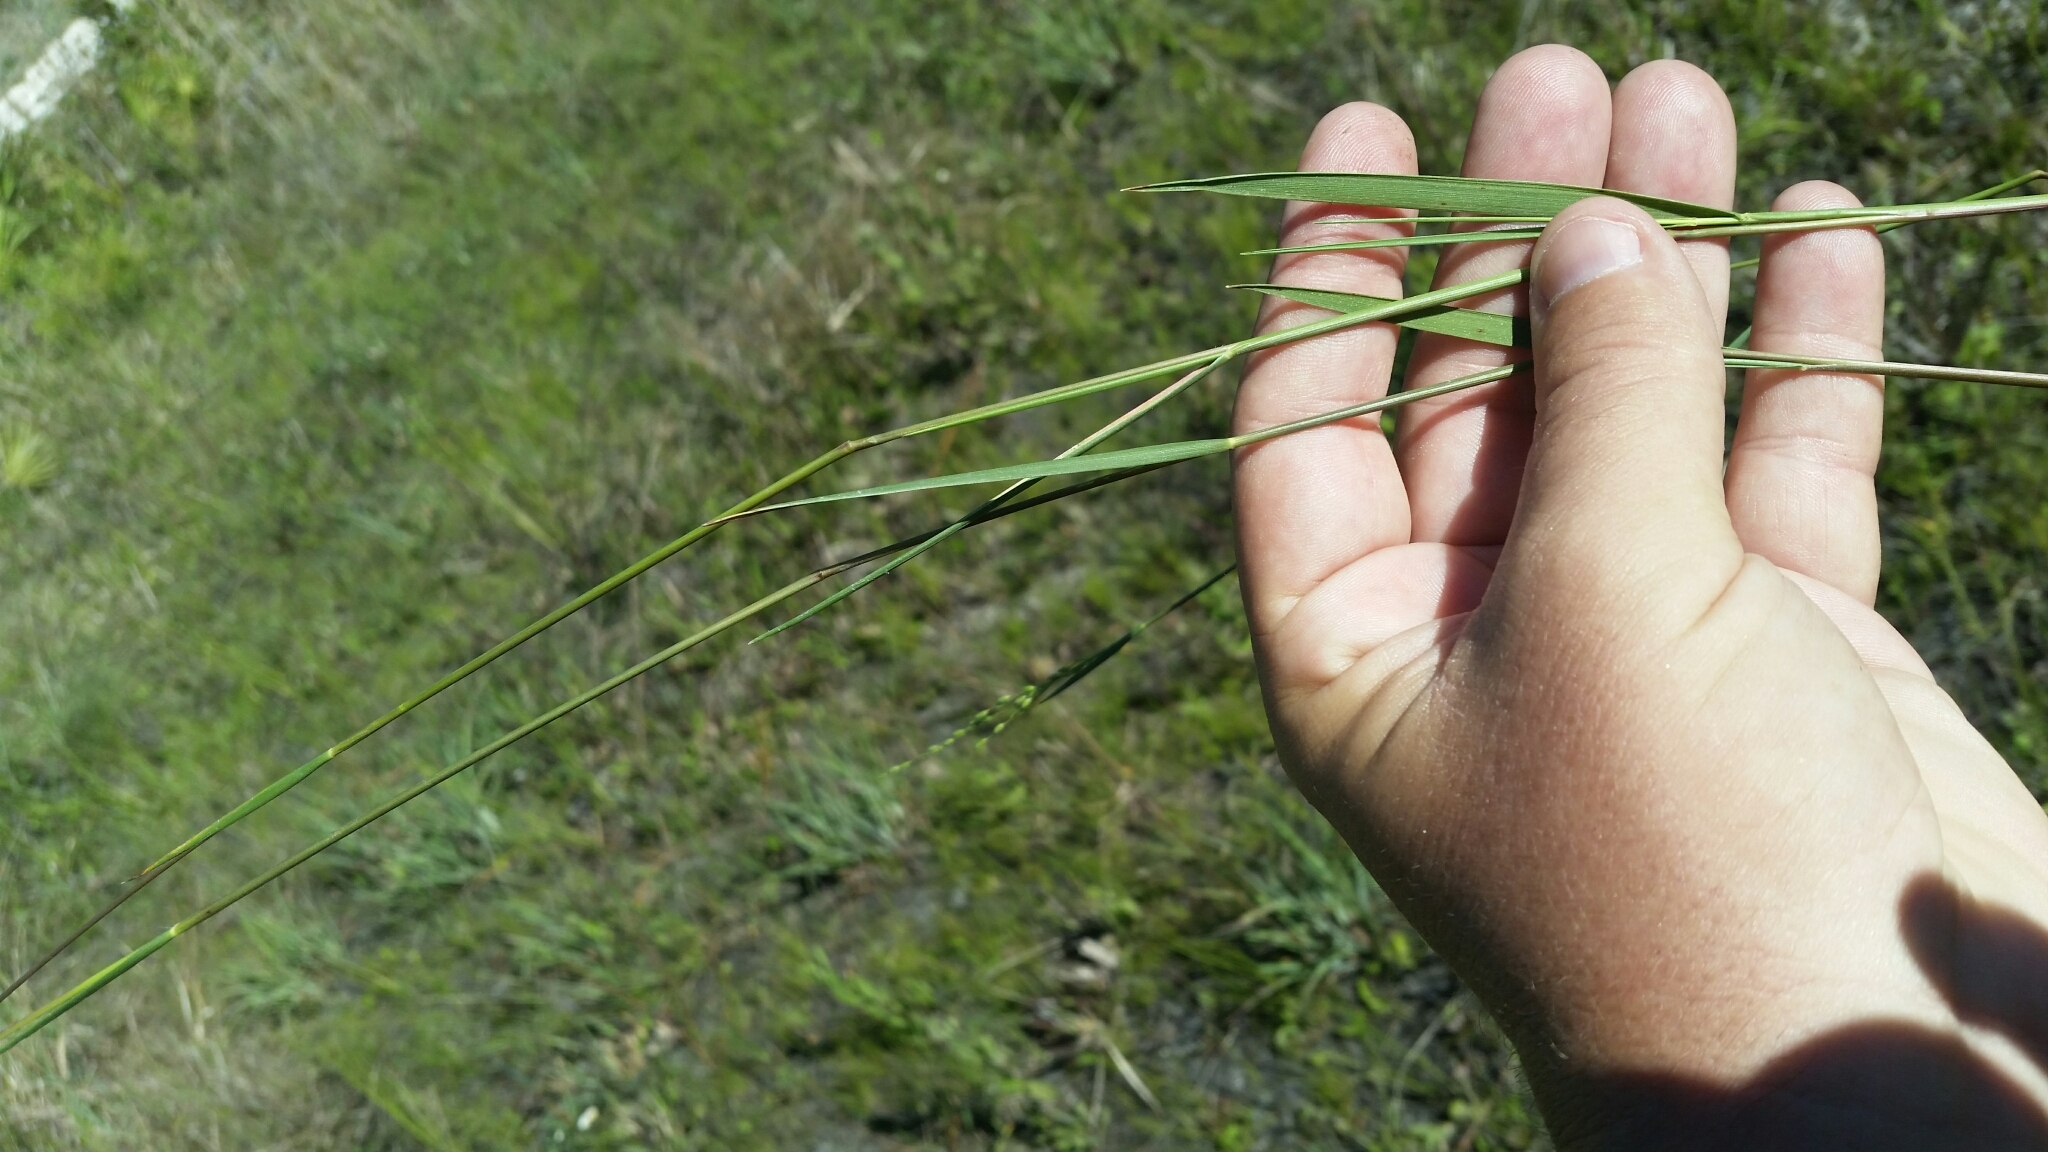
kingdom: Plantae
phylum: Tracheophyta
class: Liliopsida
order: Poales
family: Poaceae
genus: Dichanthelium
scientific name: Dichanthelium pinetorum
